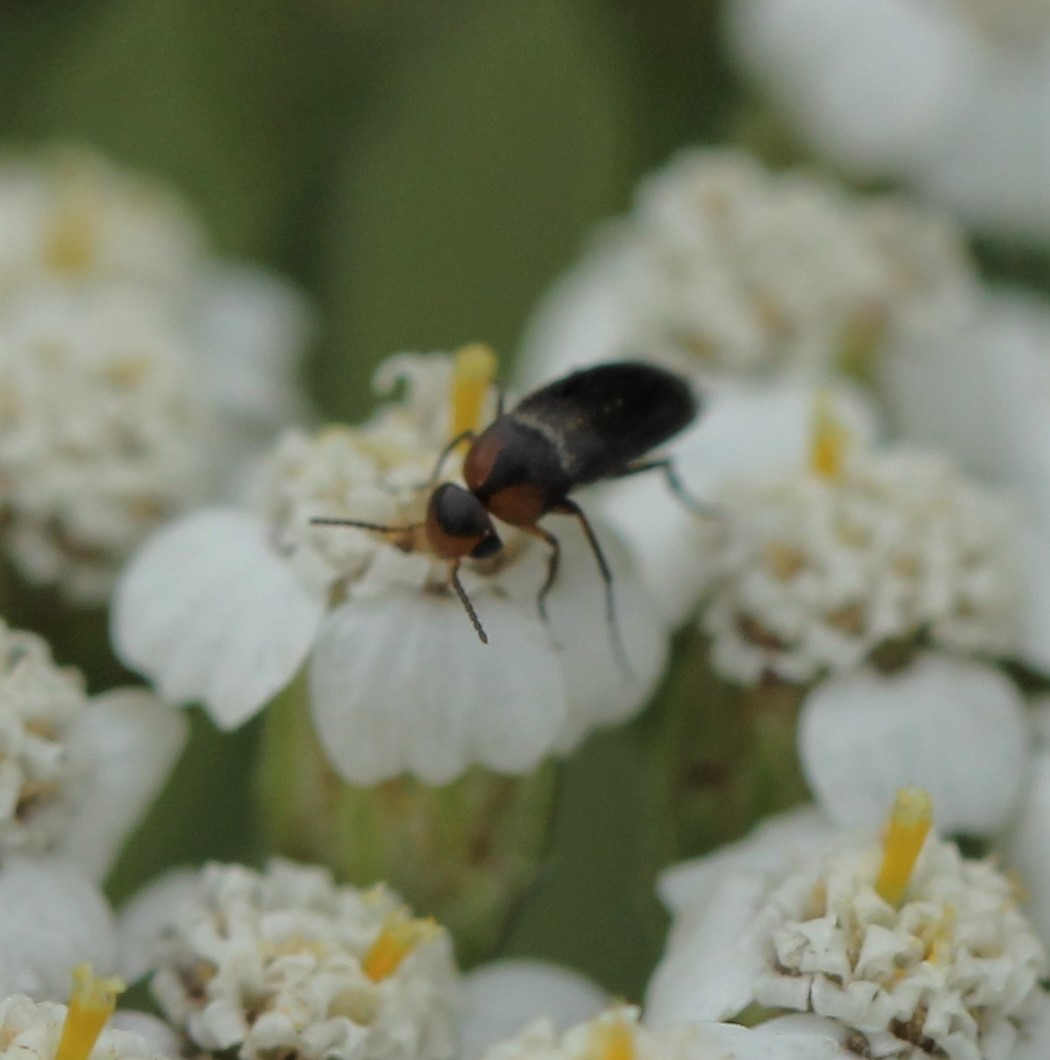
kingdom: Animalia
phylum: Arthropoda
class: Insecta
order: Coleoptera
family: Mordellidae
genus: Mordellistena
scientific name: Mordellistena cervicalis
